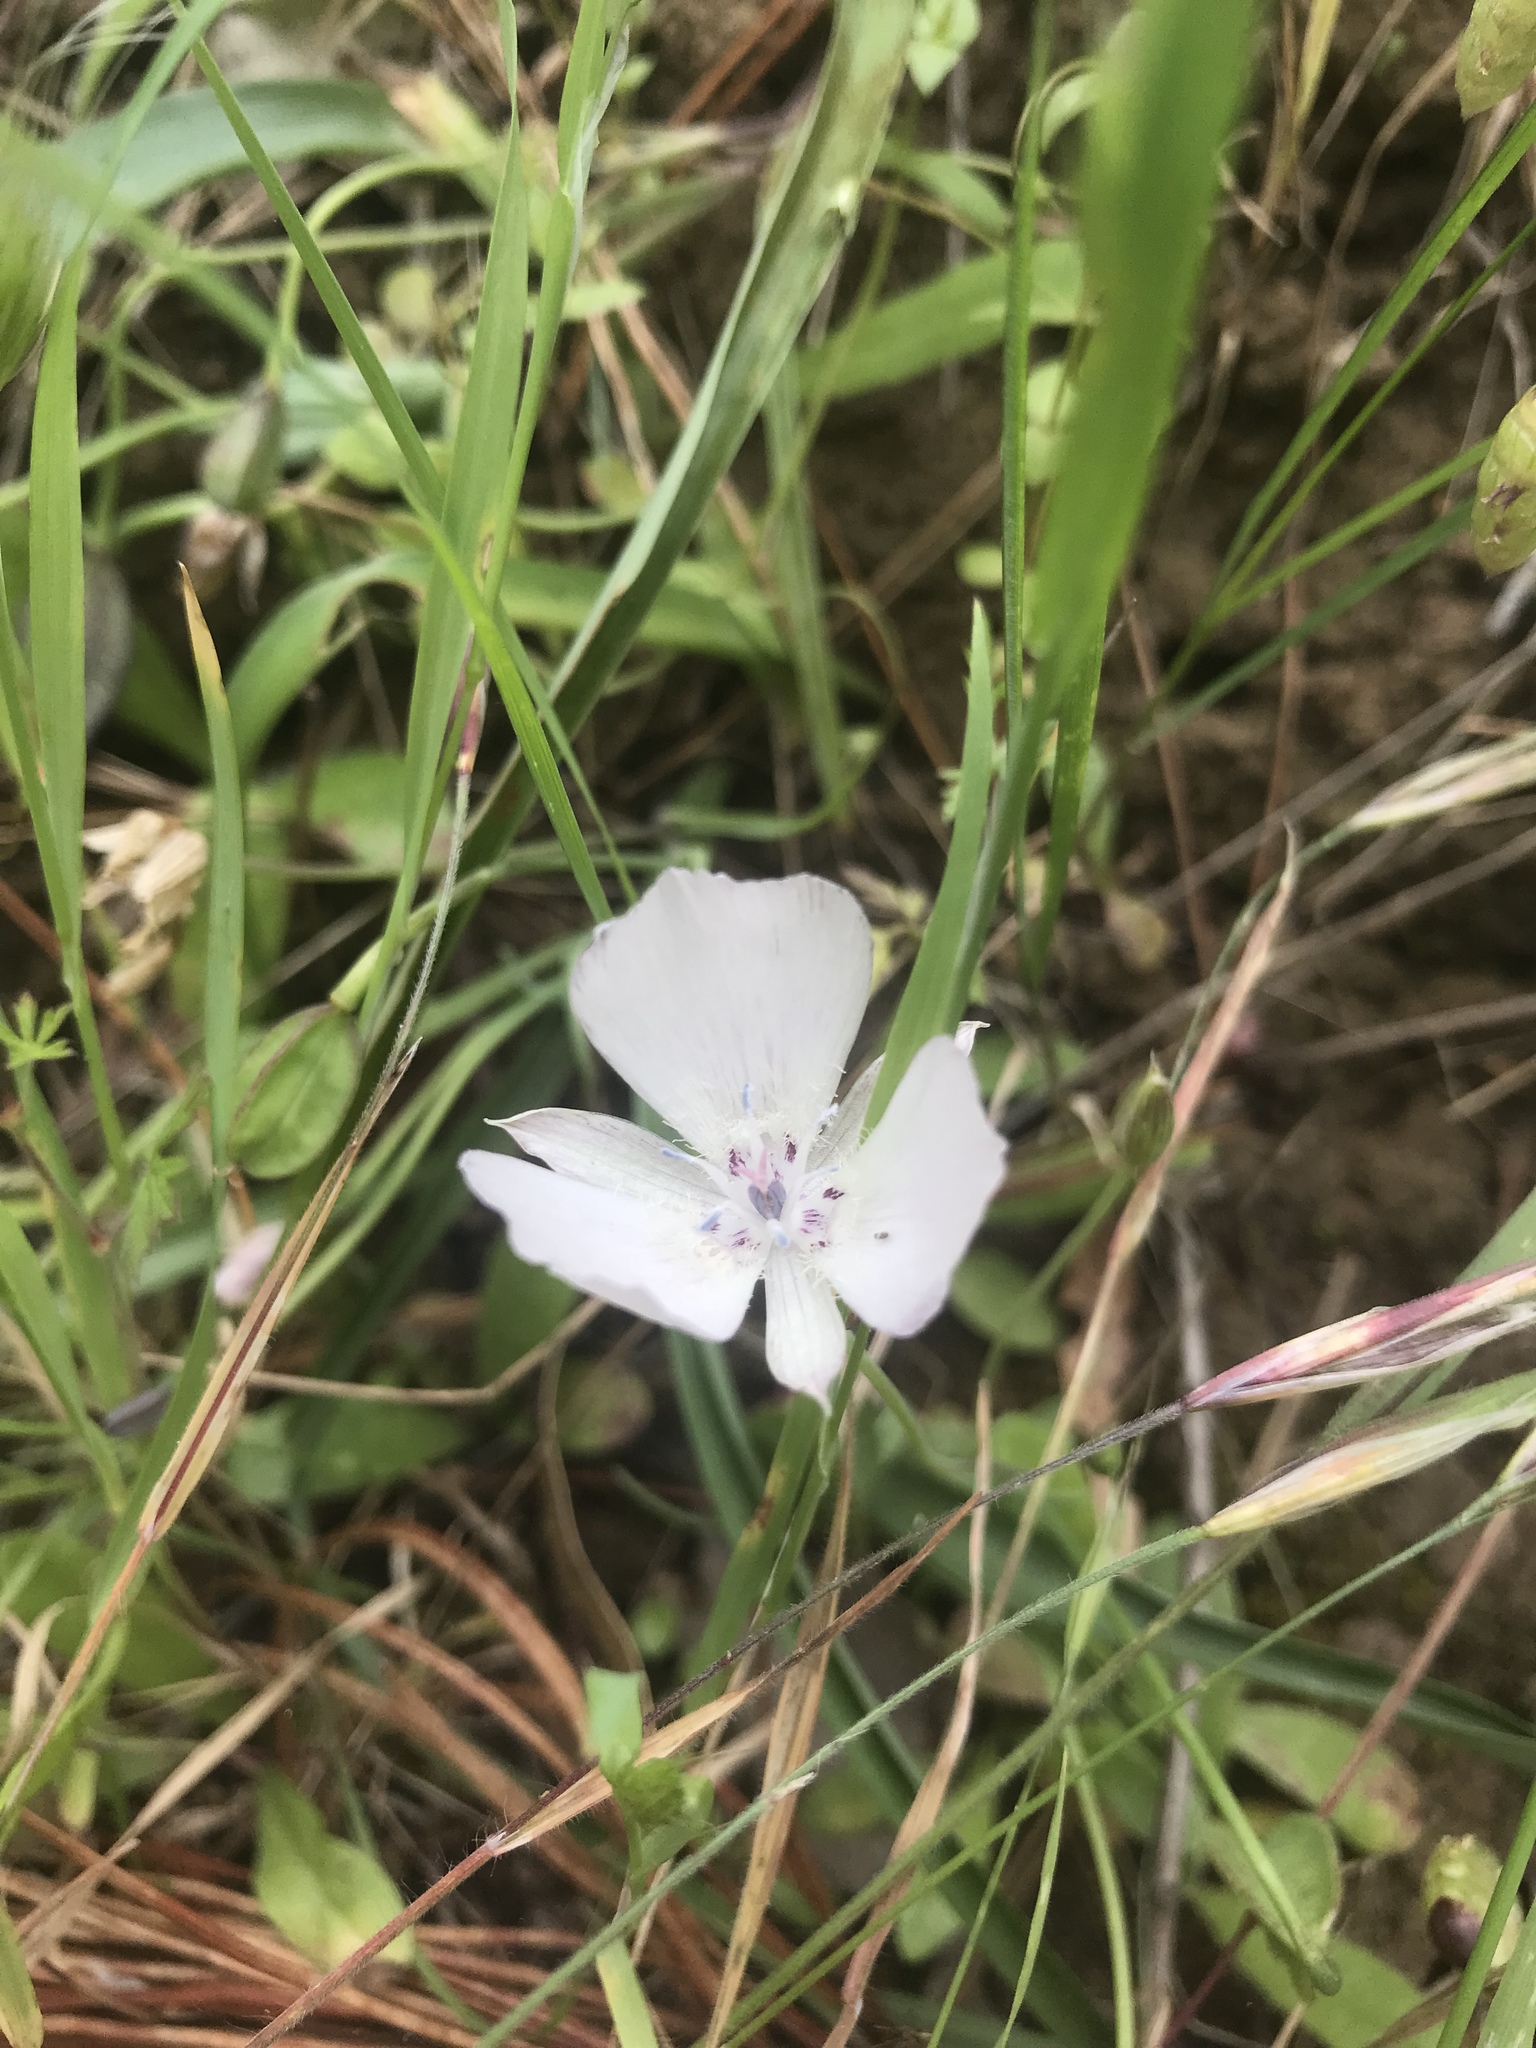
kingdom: Plantae
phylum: Tracheophyta
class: Liliopsida
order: Liliales
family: Liliaceae
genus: Calochortus
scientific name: Calochortus umbellatus
